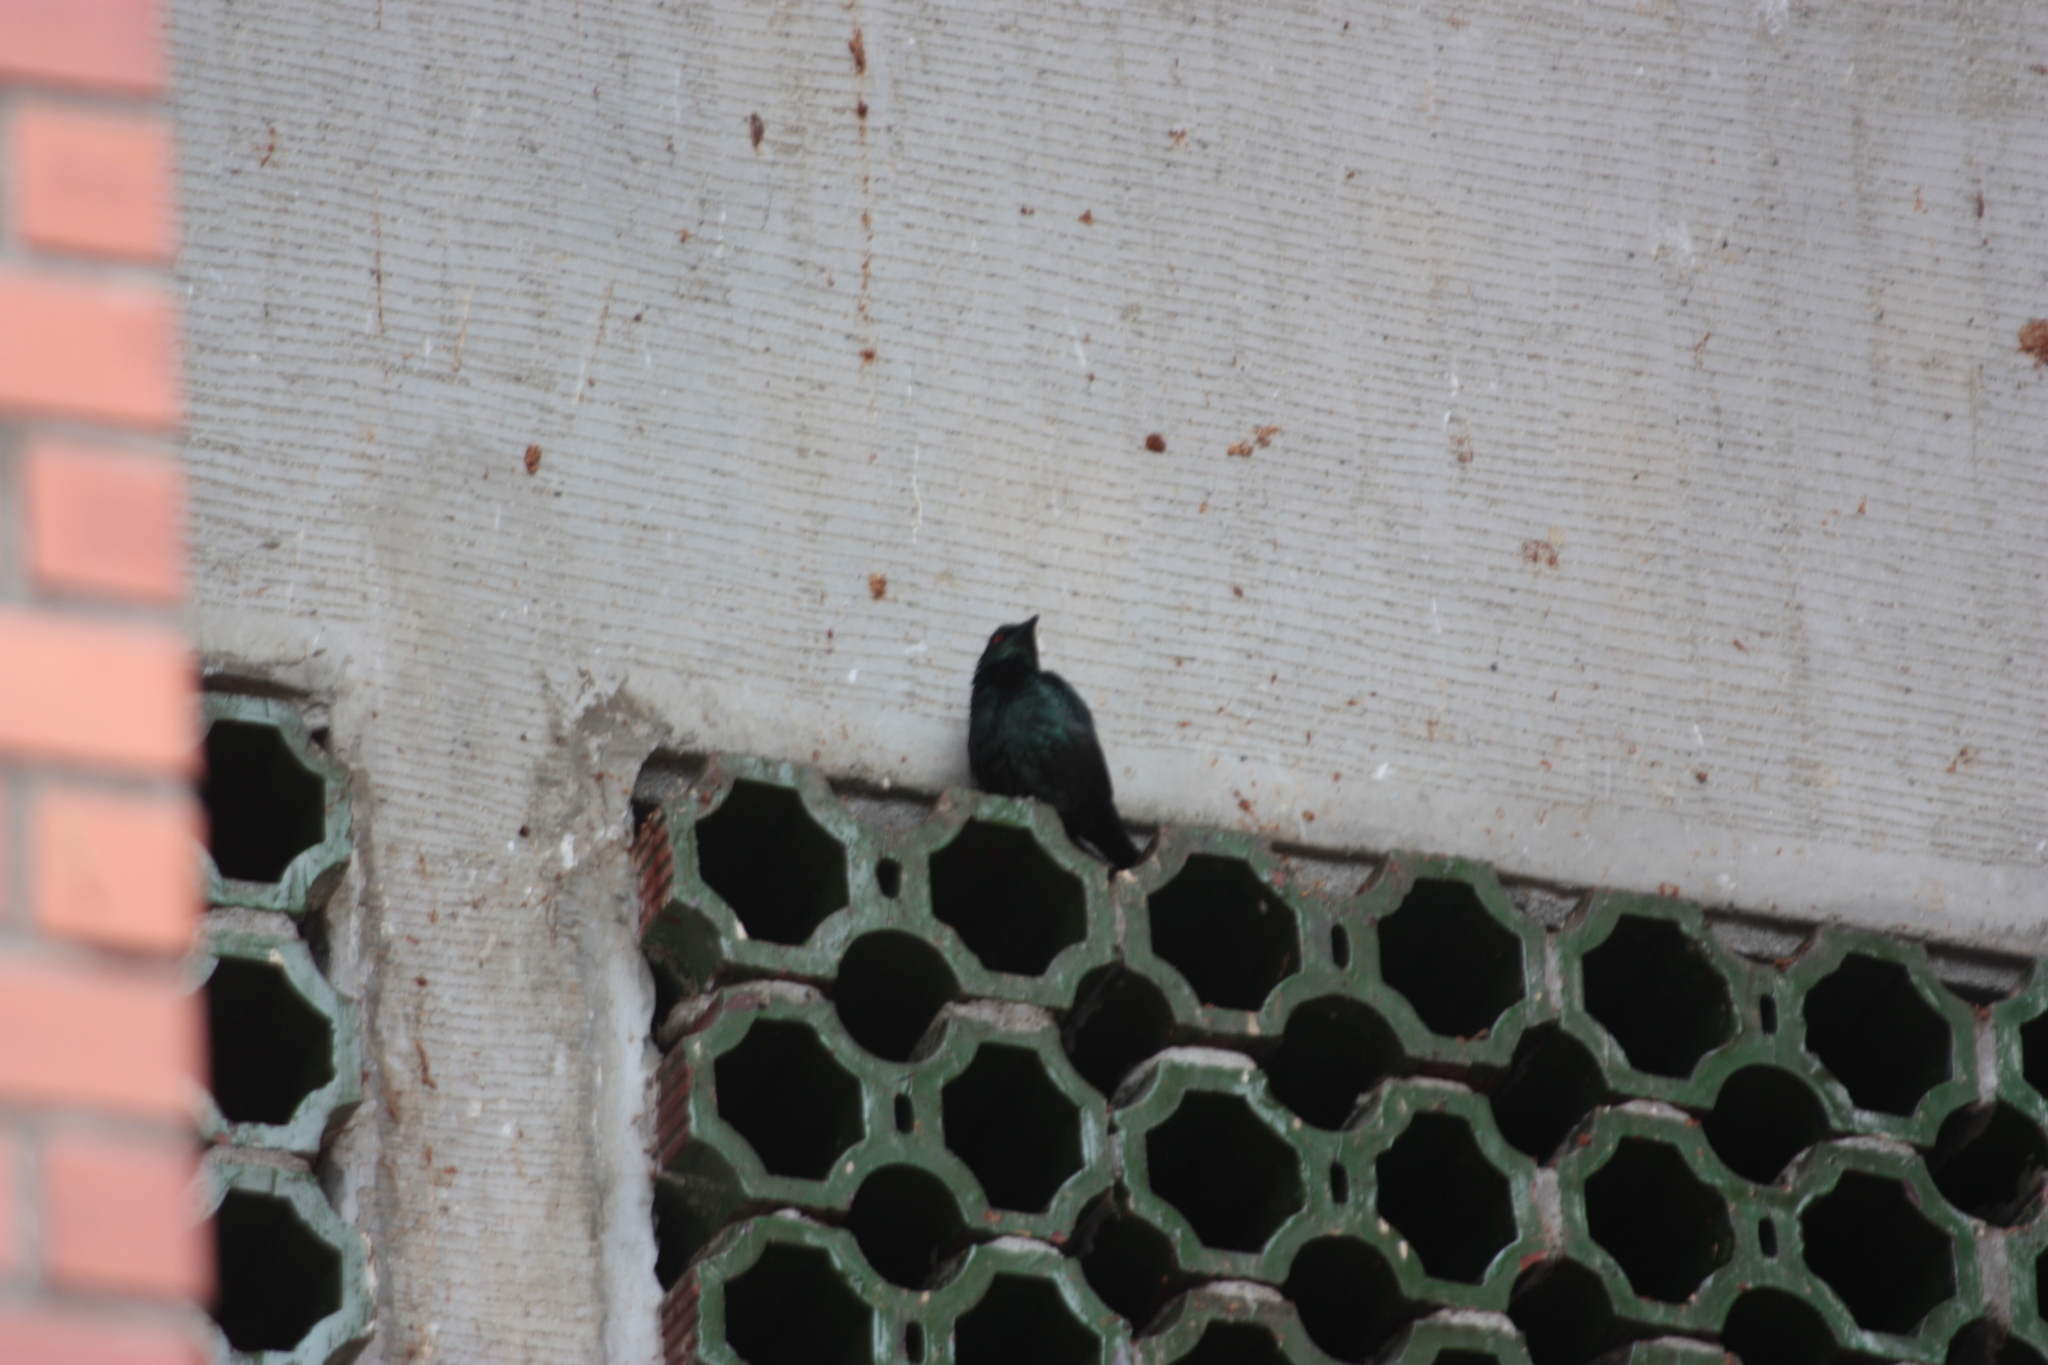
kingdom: Animalia
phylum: Chordata
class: Aves
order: Passeriformes
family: Sturnidae
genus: Aplonis
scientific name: Aplonis panayensis
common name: Asian glossy starling
